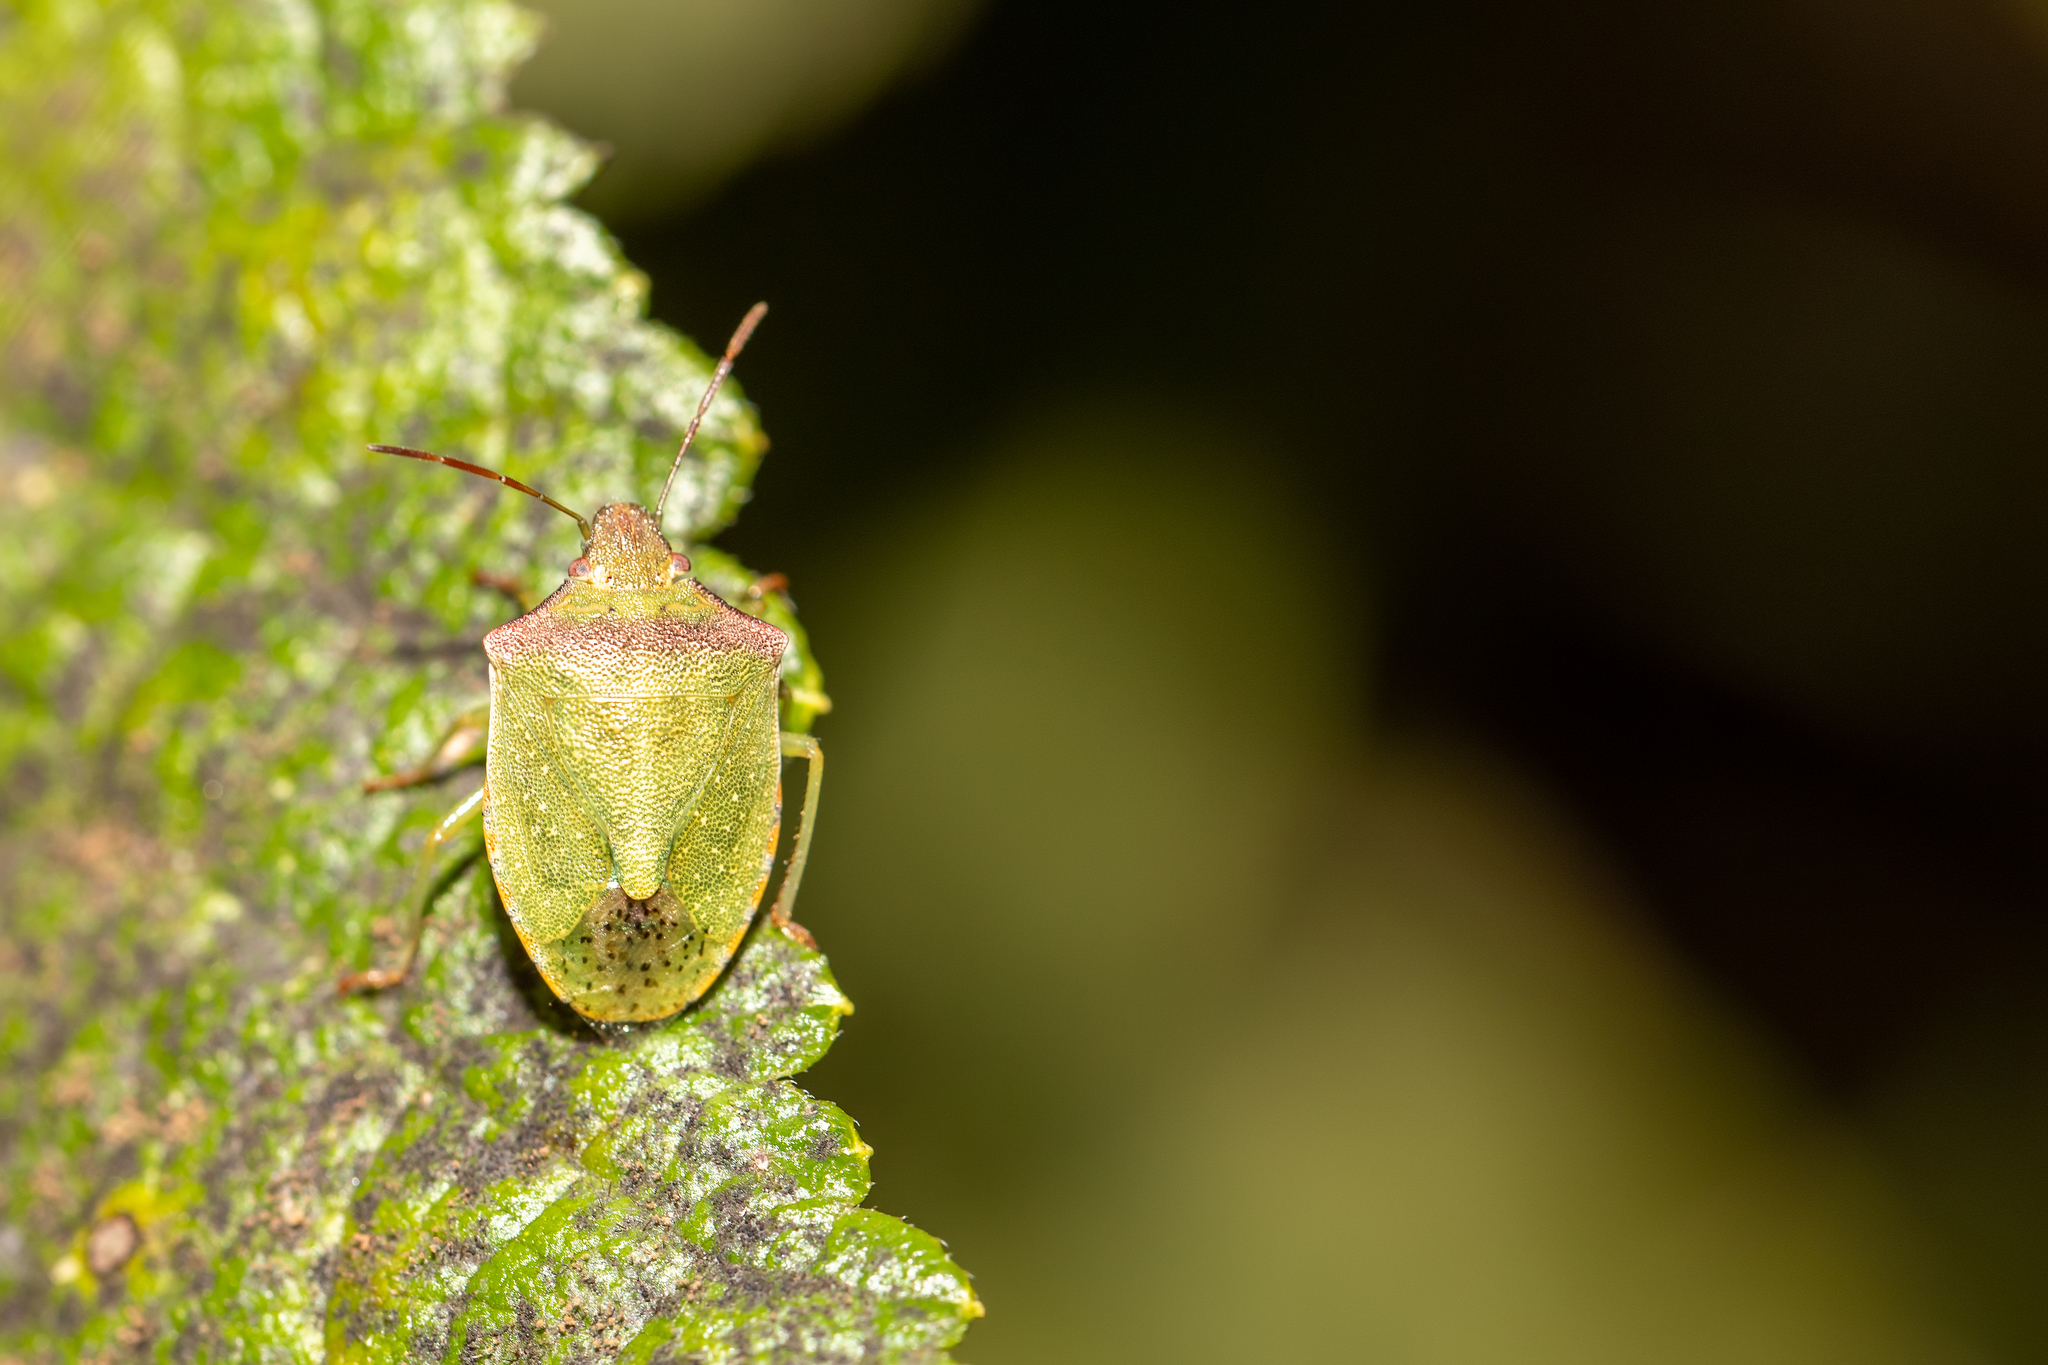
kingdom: Animalia
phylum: Arthropoda
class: Insecta
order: Hemiptera
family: Pentatomidae
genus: Thyanta
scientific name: Thyanta custator
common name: Stink bug
